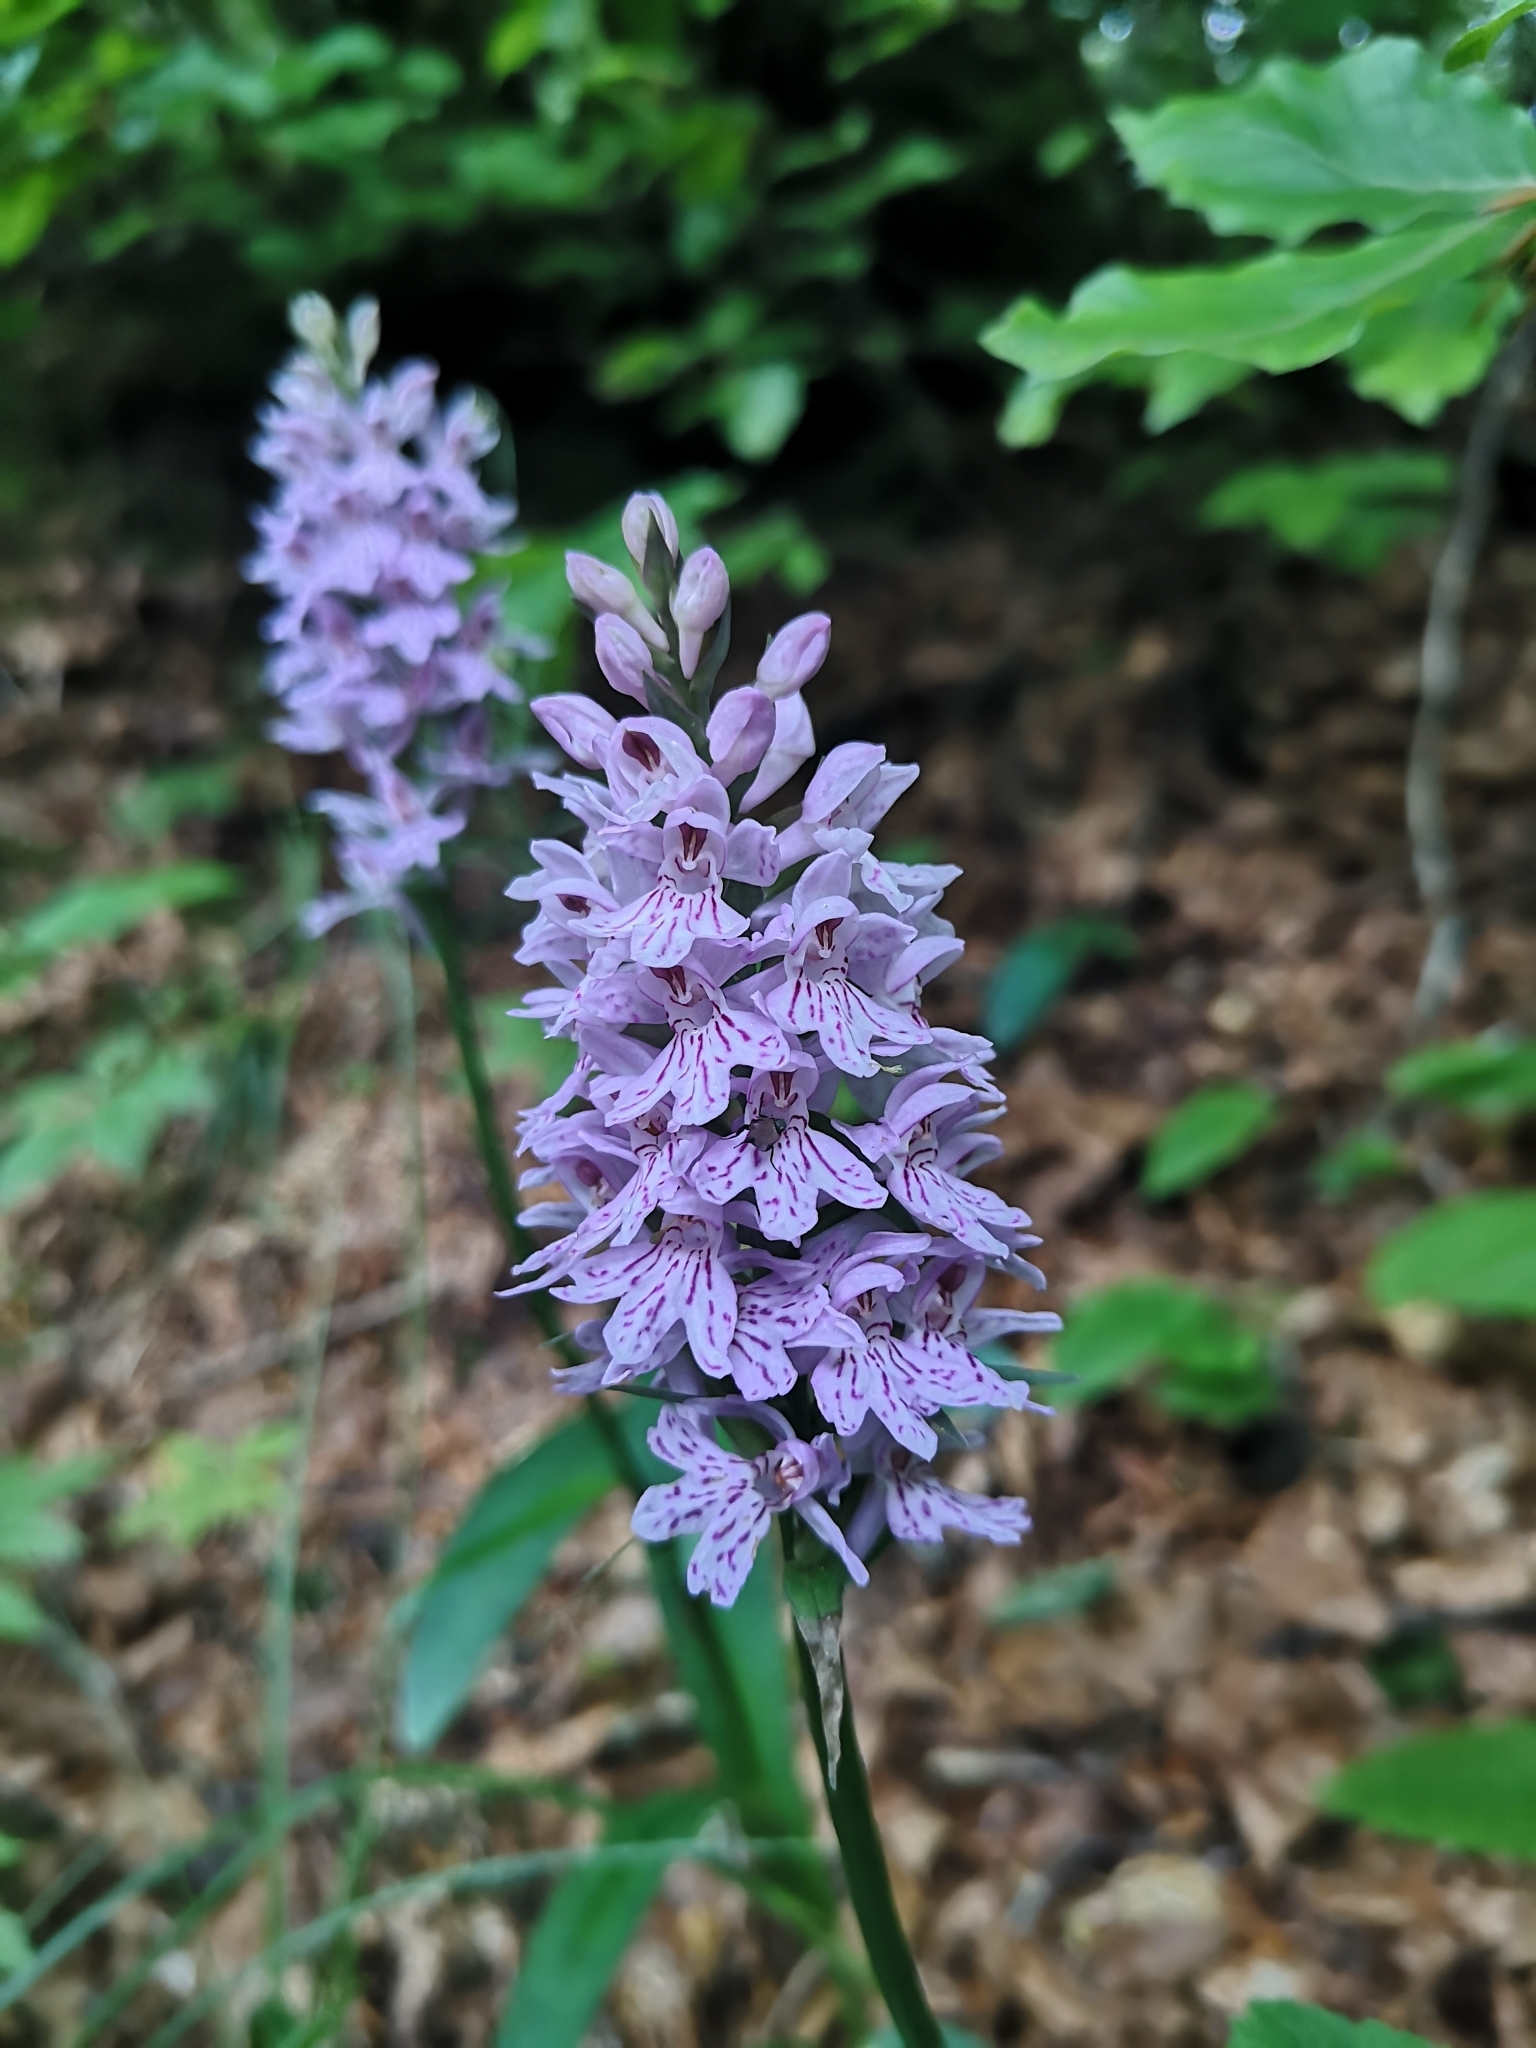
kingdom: Plantae
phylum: Tracheophyta
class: Liliopsida
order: Asparagales
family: Orchidaceae
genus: Dactylorhiza
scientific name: Dactylorhiza maculata
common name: Heath spotted-orchid
